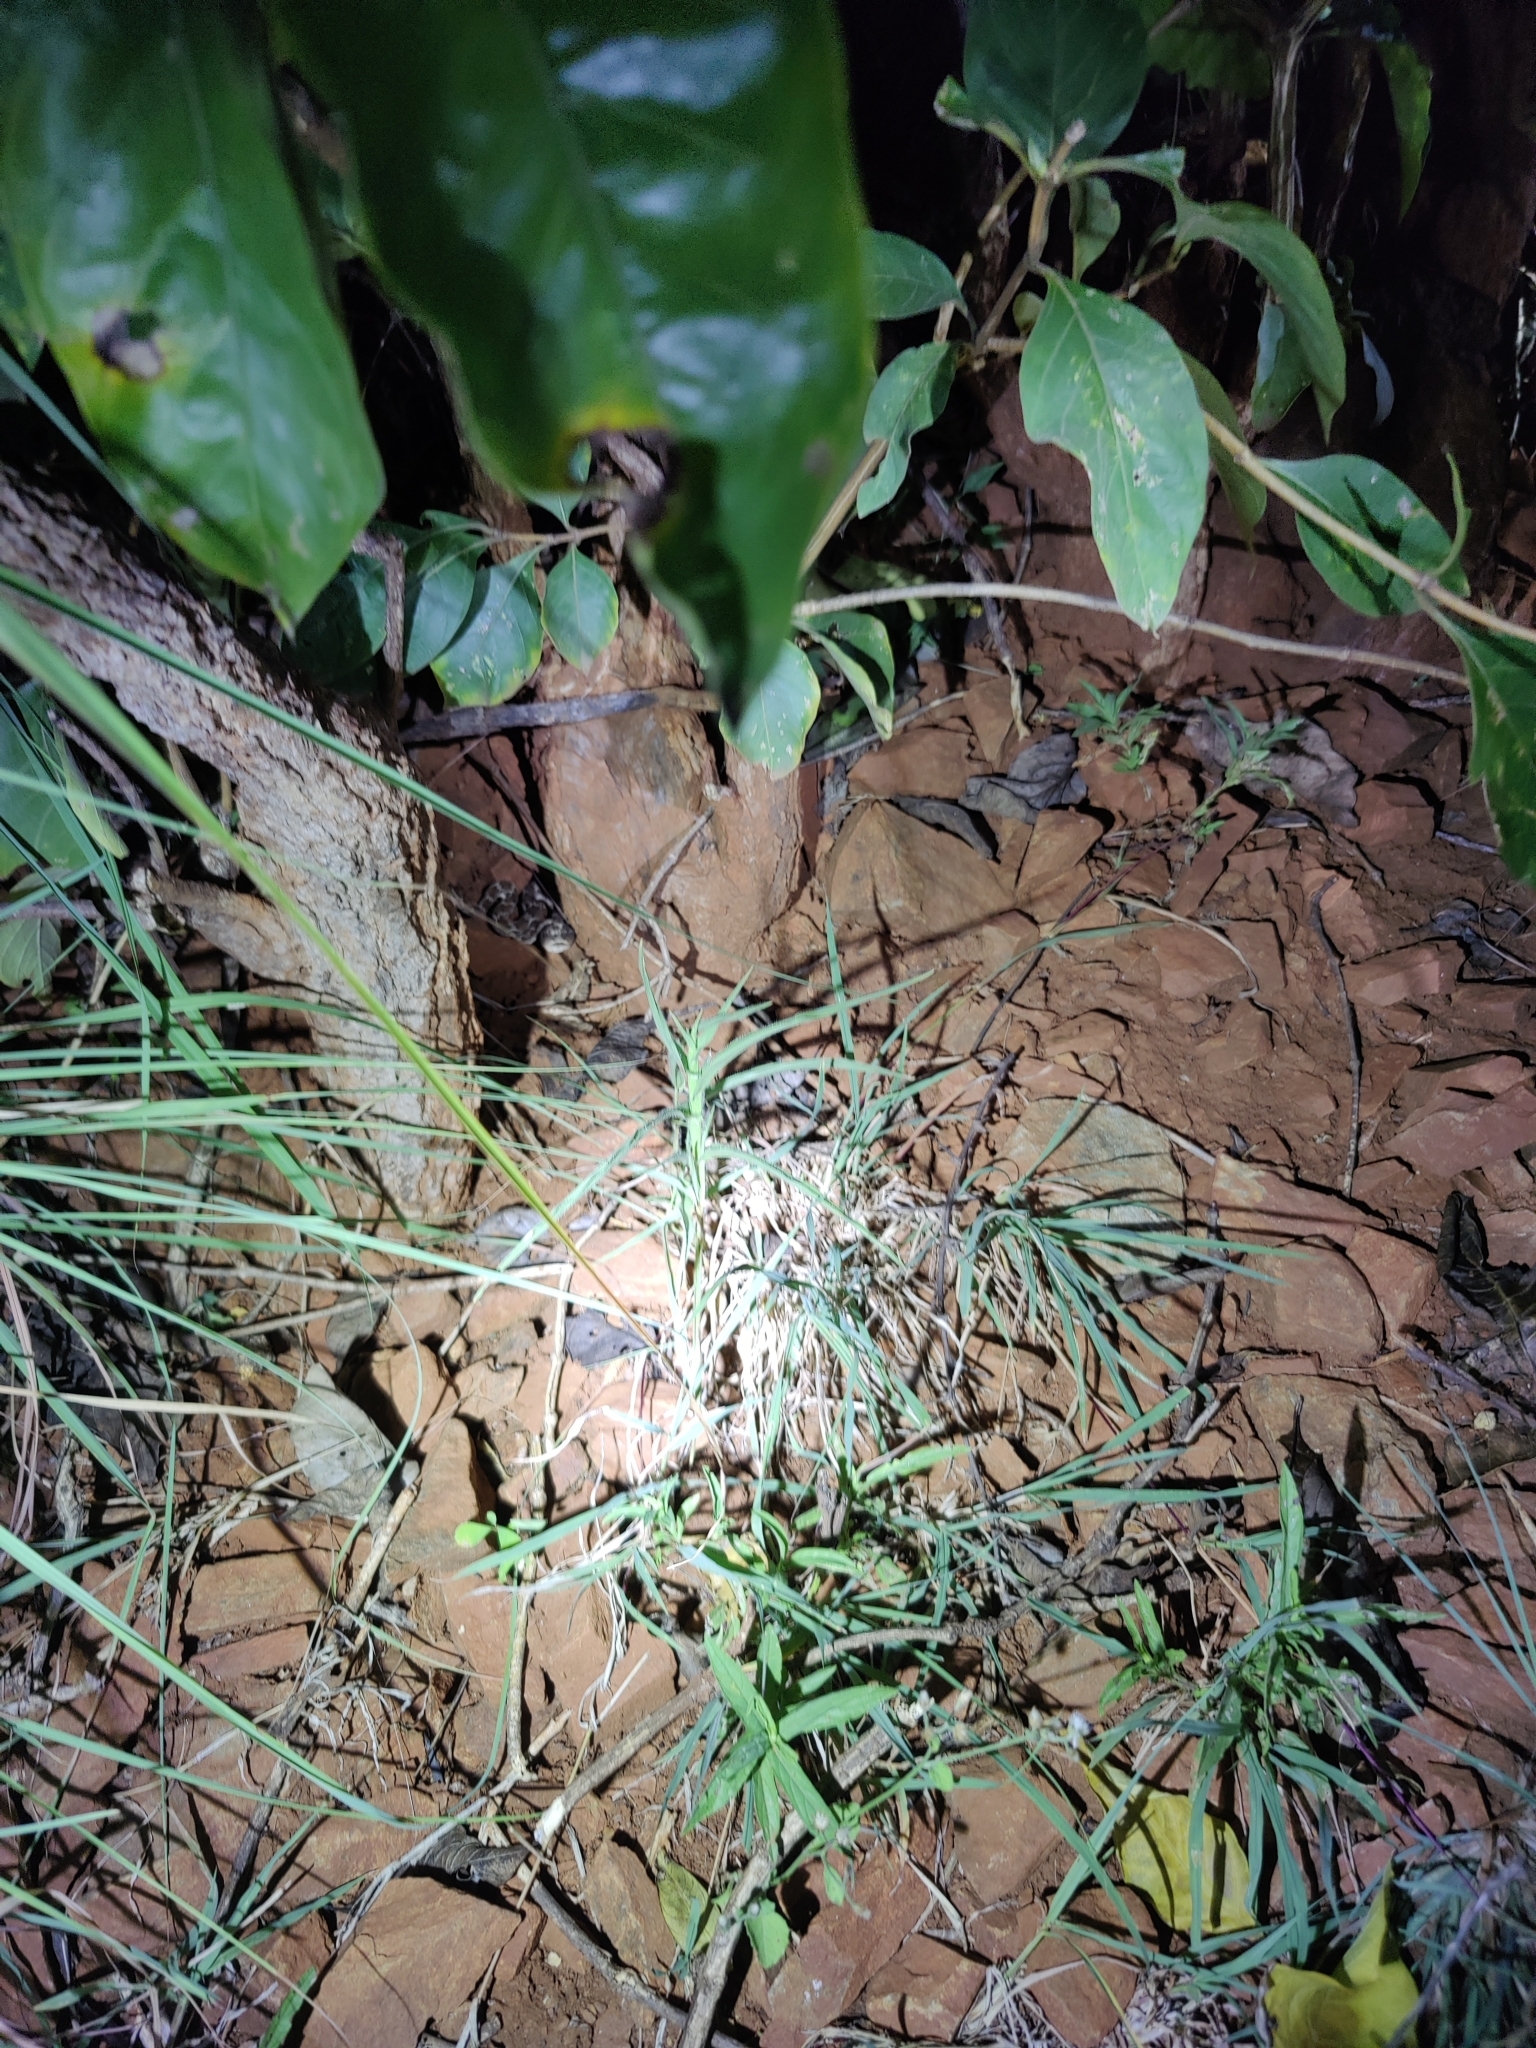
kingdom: Animalia
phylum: Chordata
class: Squamata
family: Viperidae
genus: Echis
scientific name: Echis carinatus
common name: Saw-scaled viper
